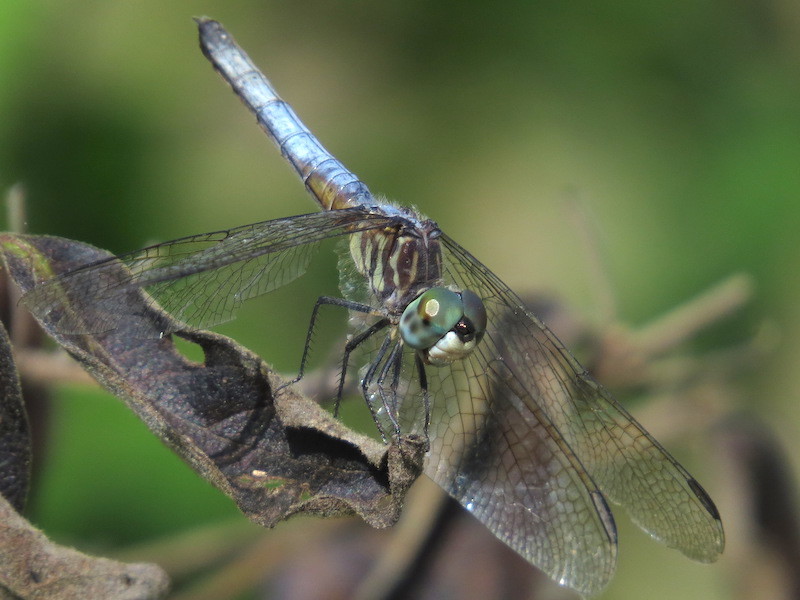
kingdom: Animalia
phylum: Arthropoda
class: Insecta
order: Odonata
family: Libellulidae
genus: Pachydiplax
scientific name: Pachydiplax longipennis
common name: Blue dasher
